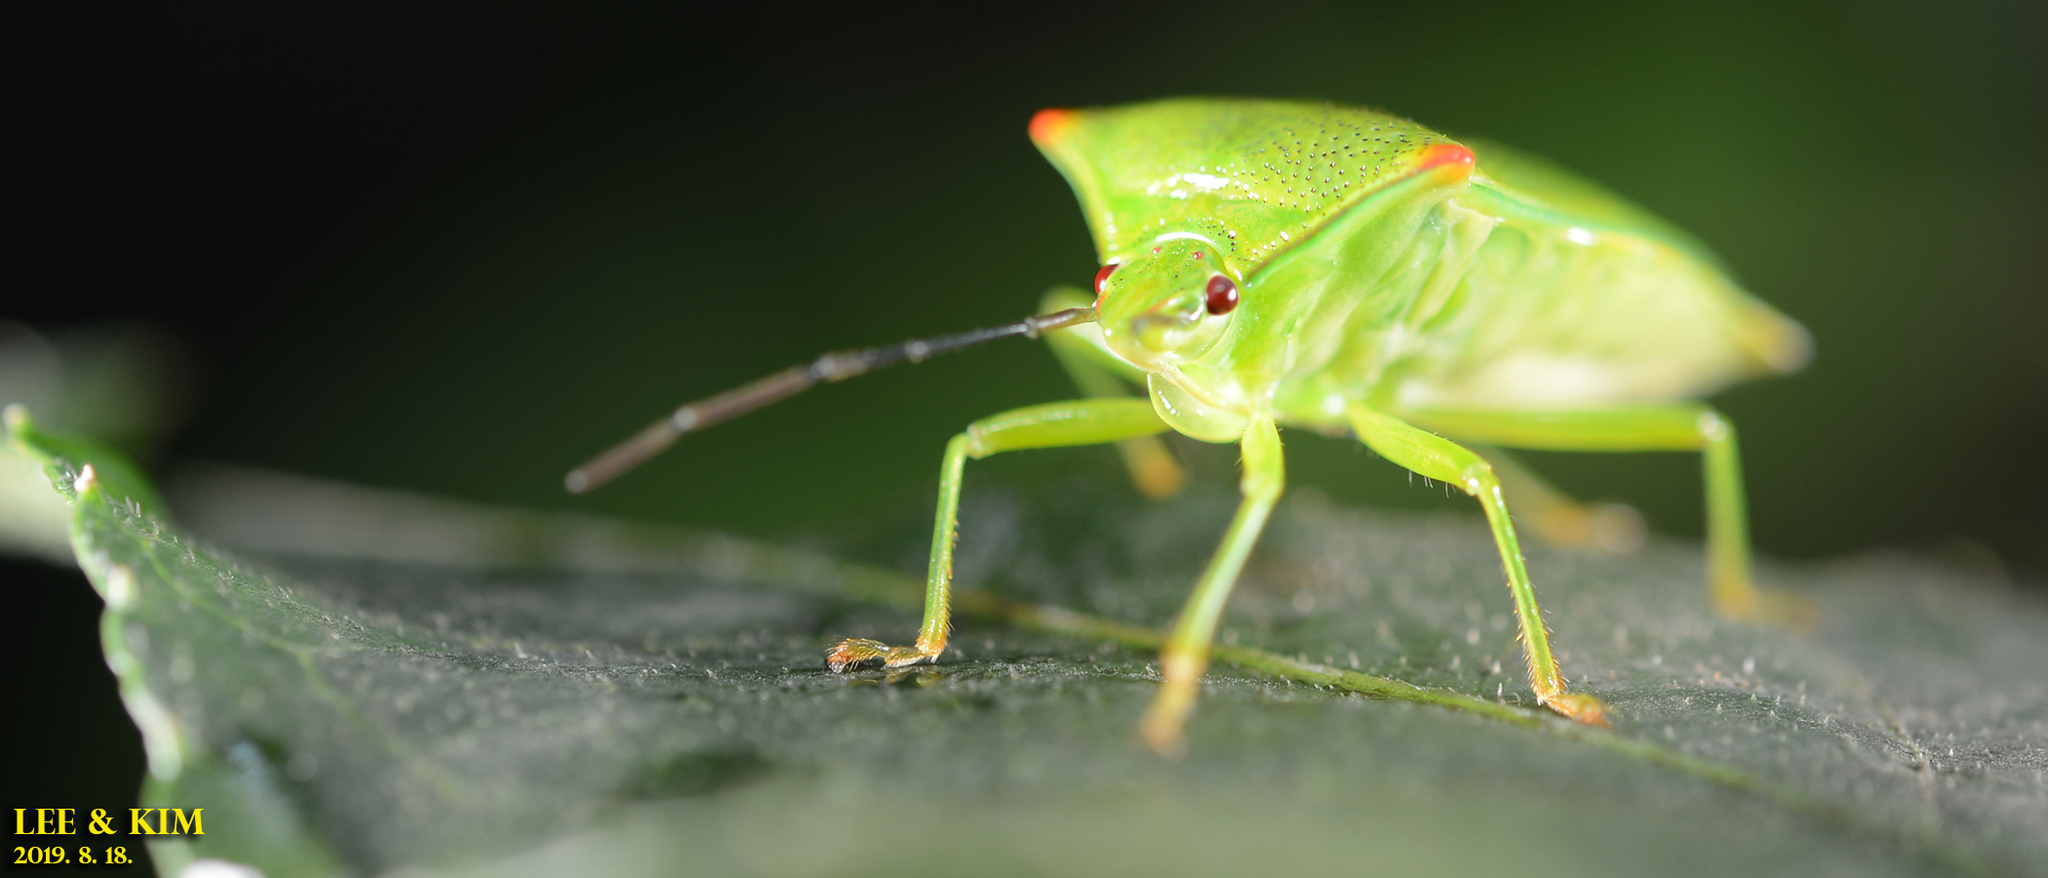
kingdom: Animalia
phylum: Arthropoda
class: Insecta
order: Hemiptera
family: Acanthosomatidae
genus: Acanthosoma
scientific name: Acanthosoma labiduroides
